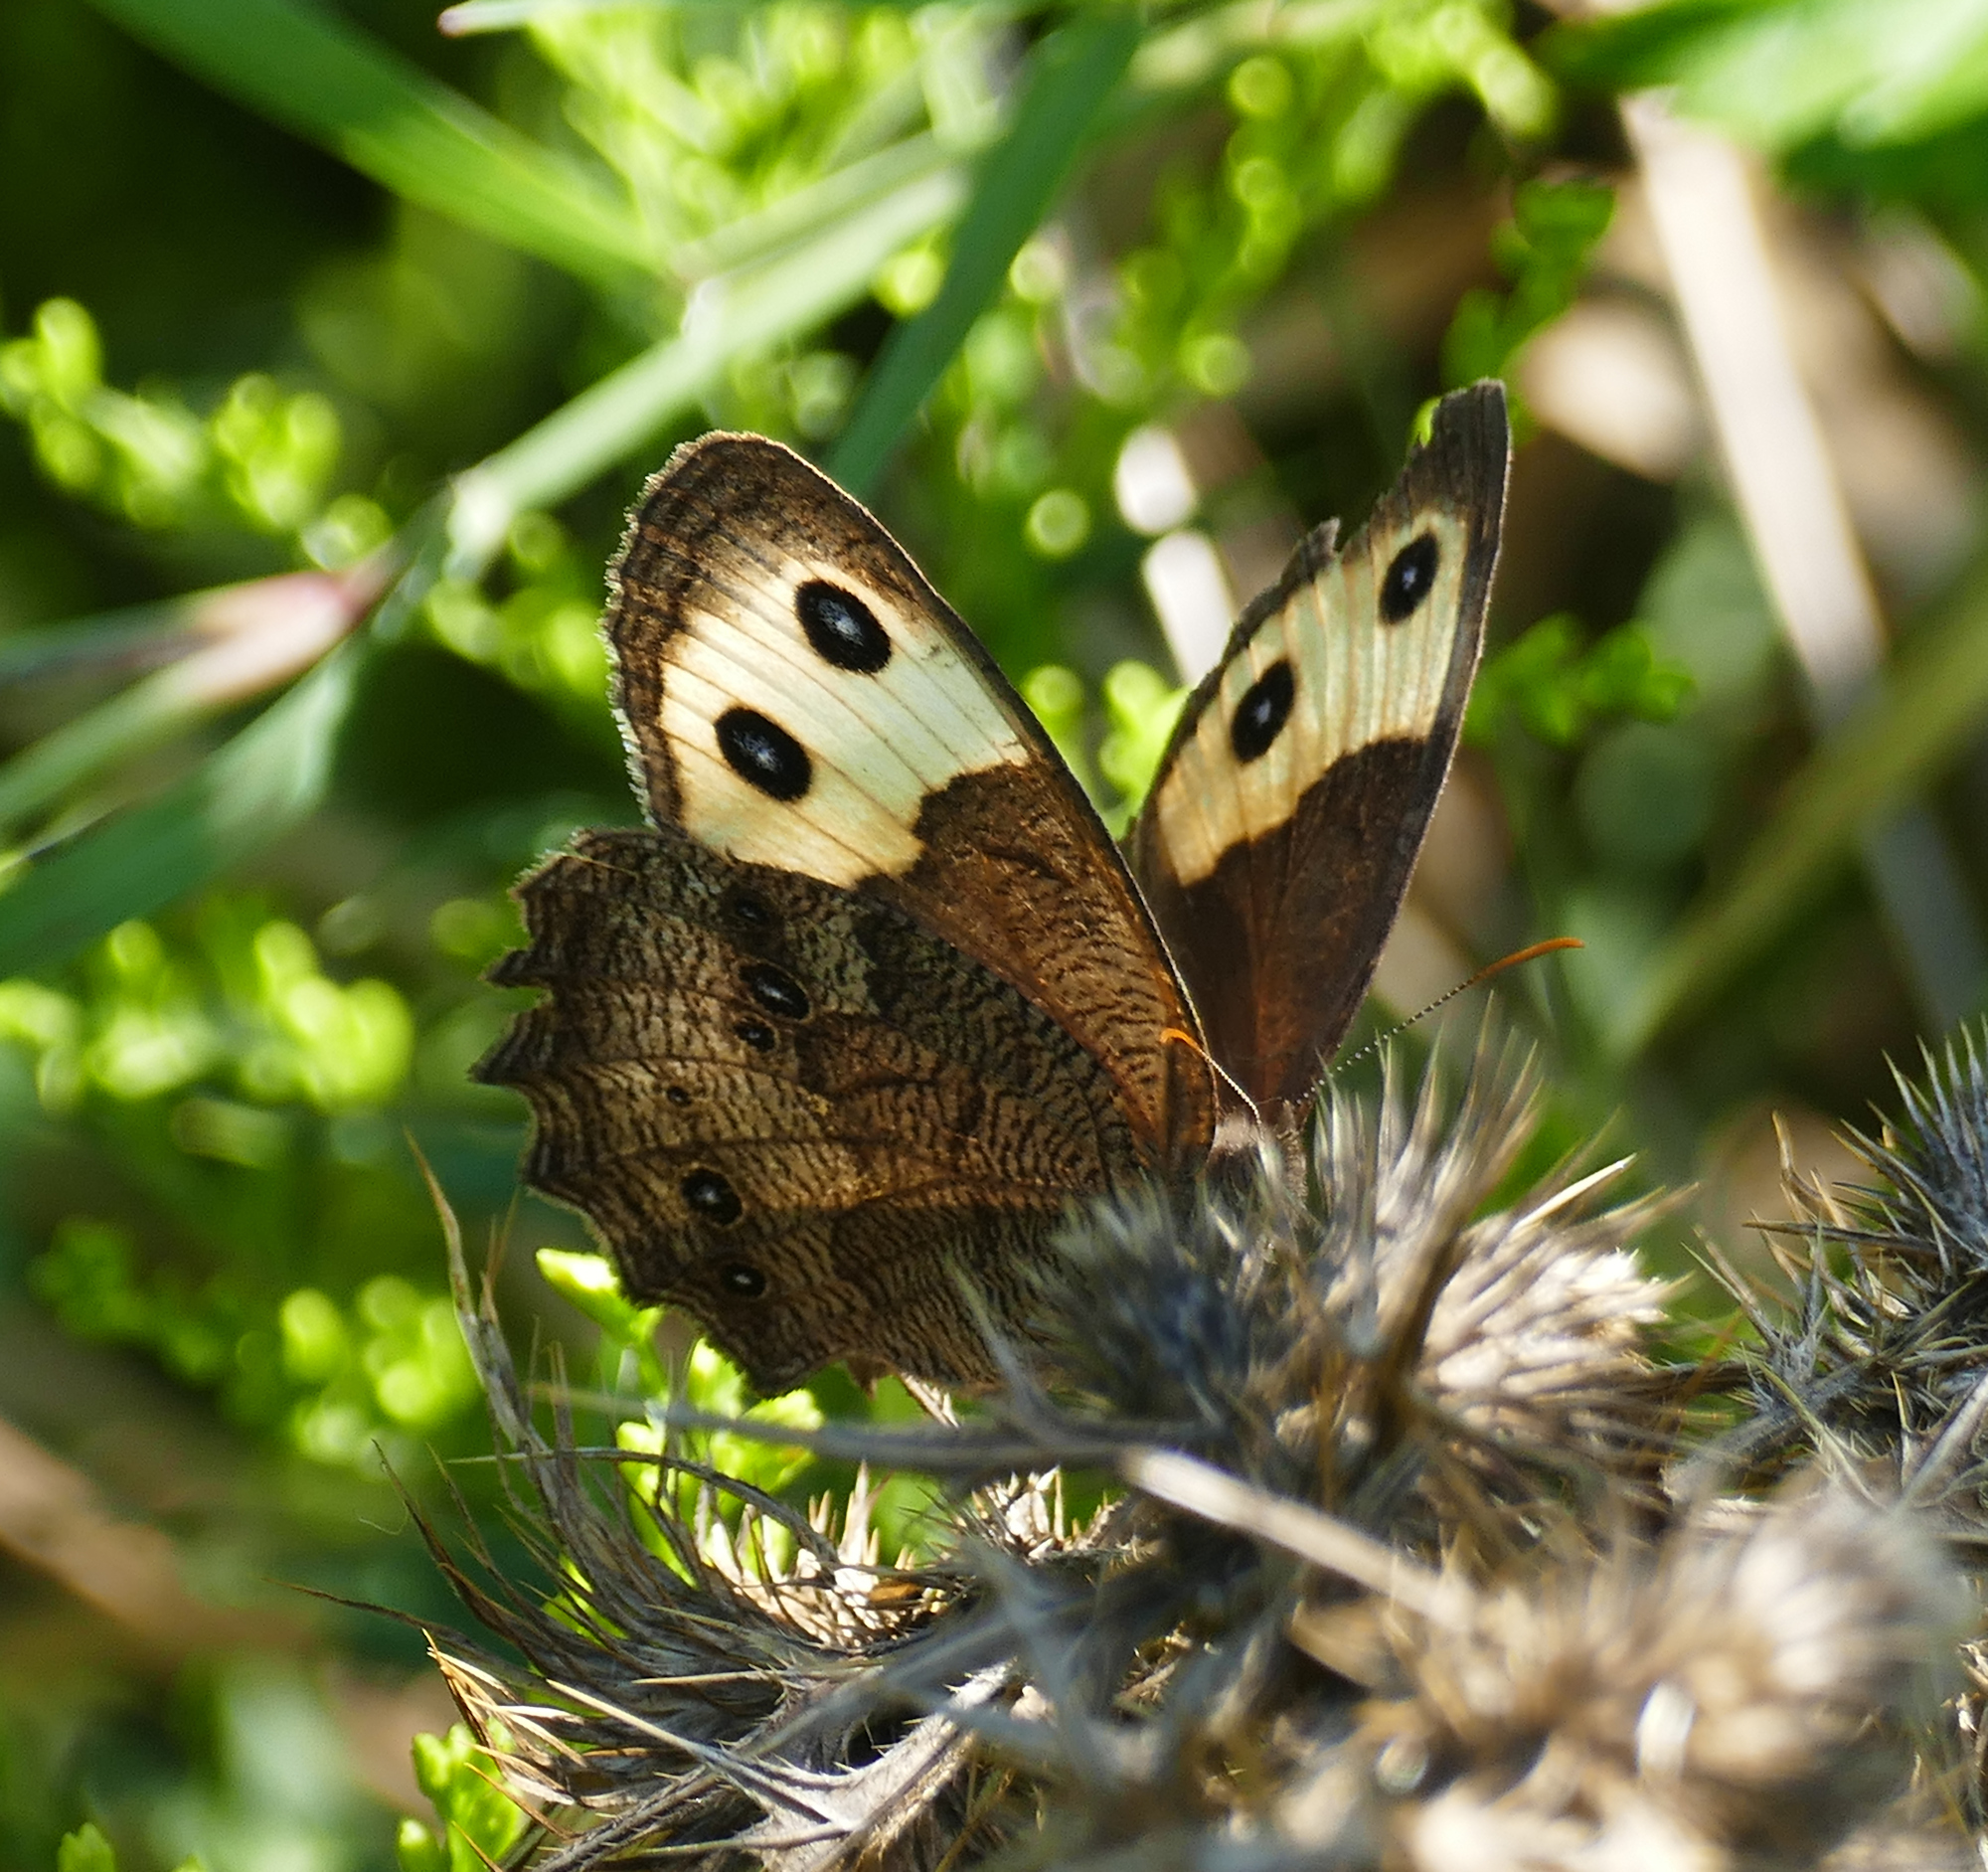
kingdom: Animalia
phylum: Arthropoda
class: Insecta
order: Lepidoptera
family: Nymphalidae
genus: Cercyonis
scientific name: Cercyonis pegala
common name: Common wood-nymph
